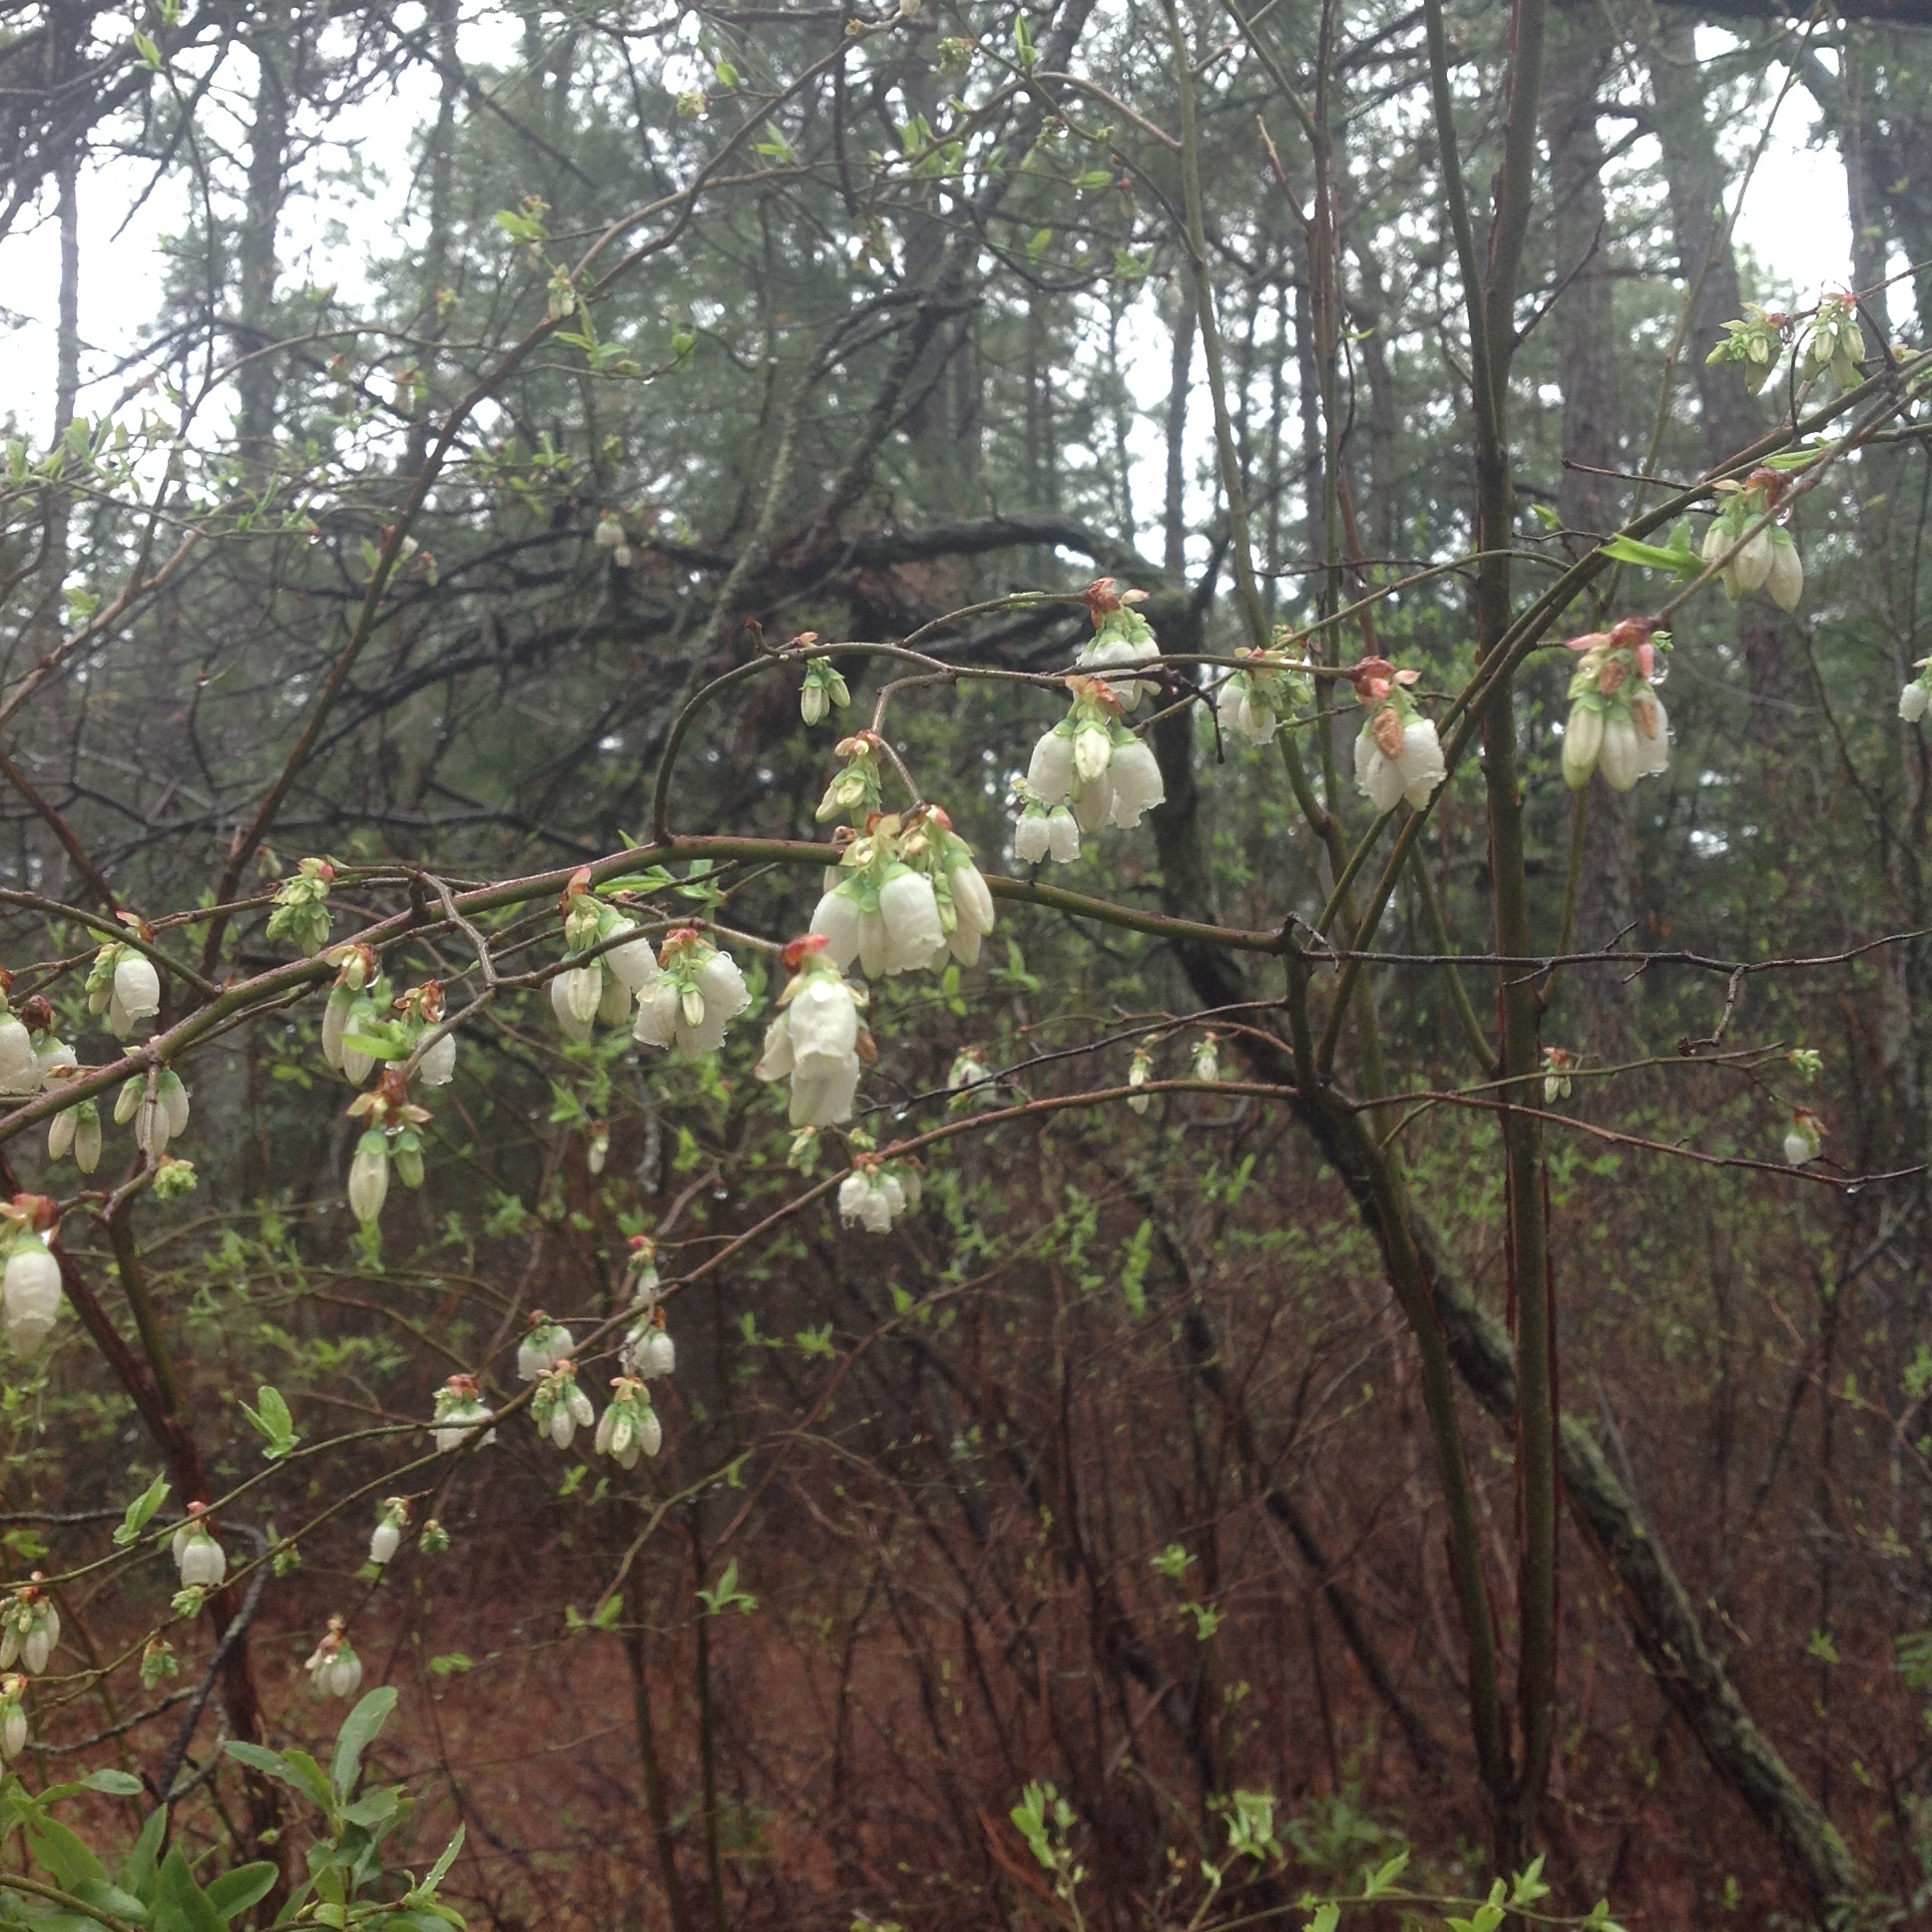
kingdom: Plantae
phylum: Tracheophyta
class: Magnoliopsida
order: Ericales
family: Ericaceae
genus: Vaccinium
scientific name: Vaccinium corymbosum
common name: Blueberry
